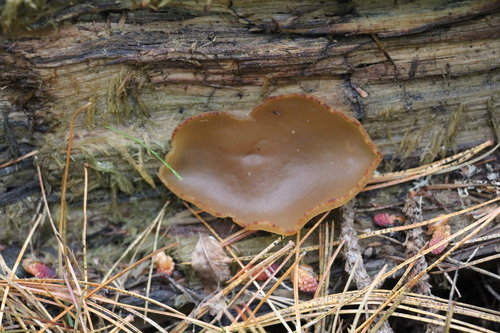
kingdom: Fungi
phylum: Ascomycota
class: Pezizomycetes
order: Pezizales
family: Pezizaceae
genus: Peziza
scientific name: Peziza varia
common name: Layered cup
